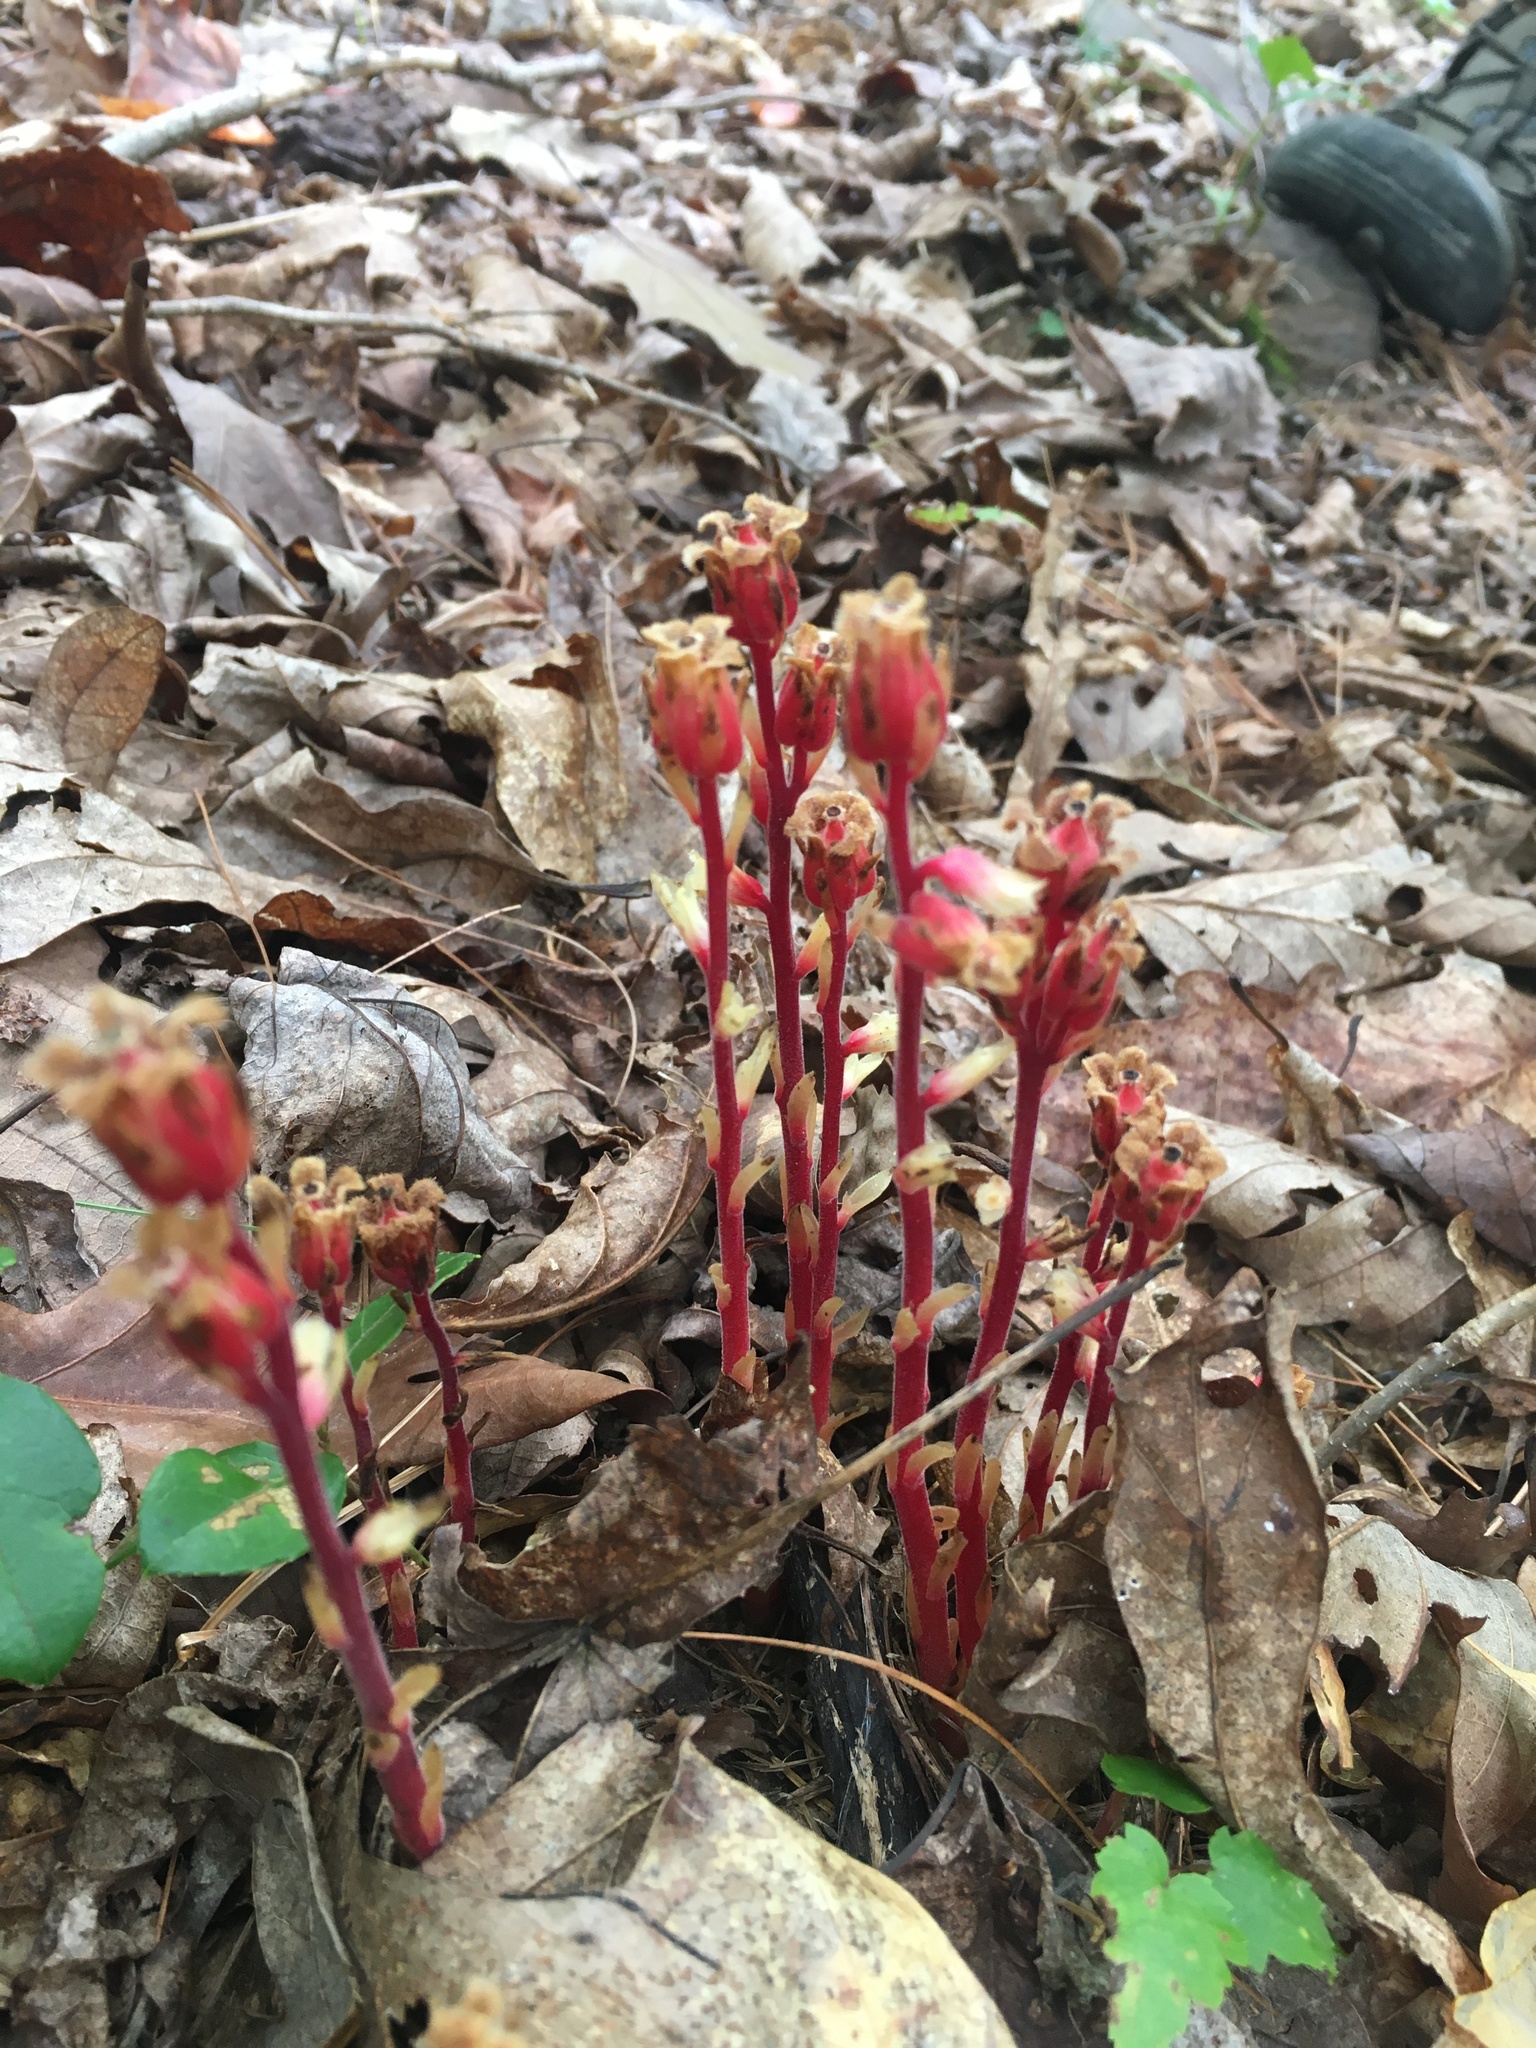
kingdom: Plantae
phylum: Tracheophyta
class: Magnoliopsida
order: Ericales
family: Ericaceae
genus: Hypopitys
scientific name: Hypopitys monotropa
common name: Yellow bird's-nest
